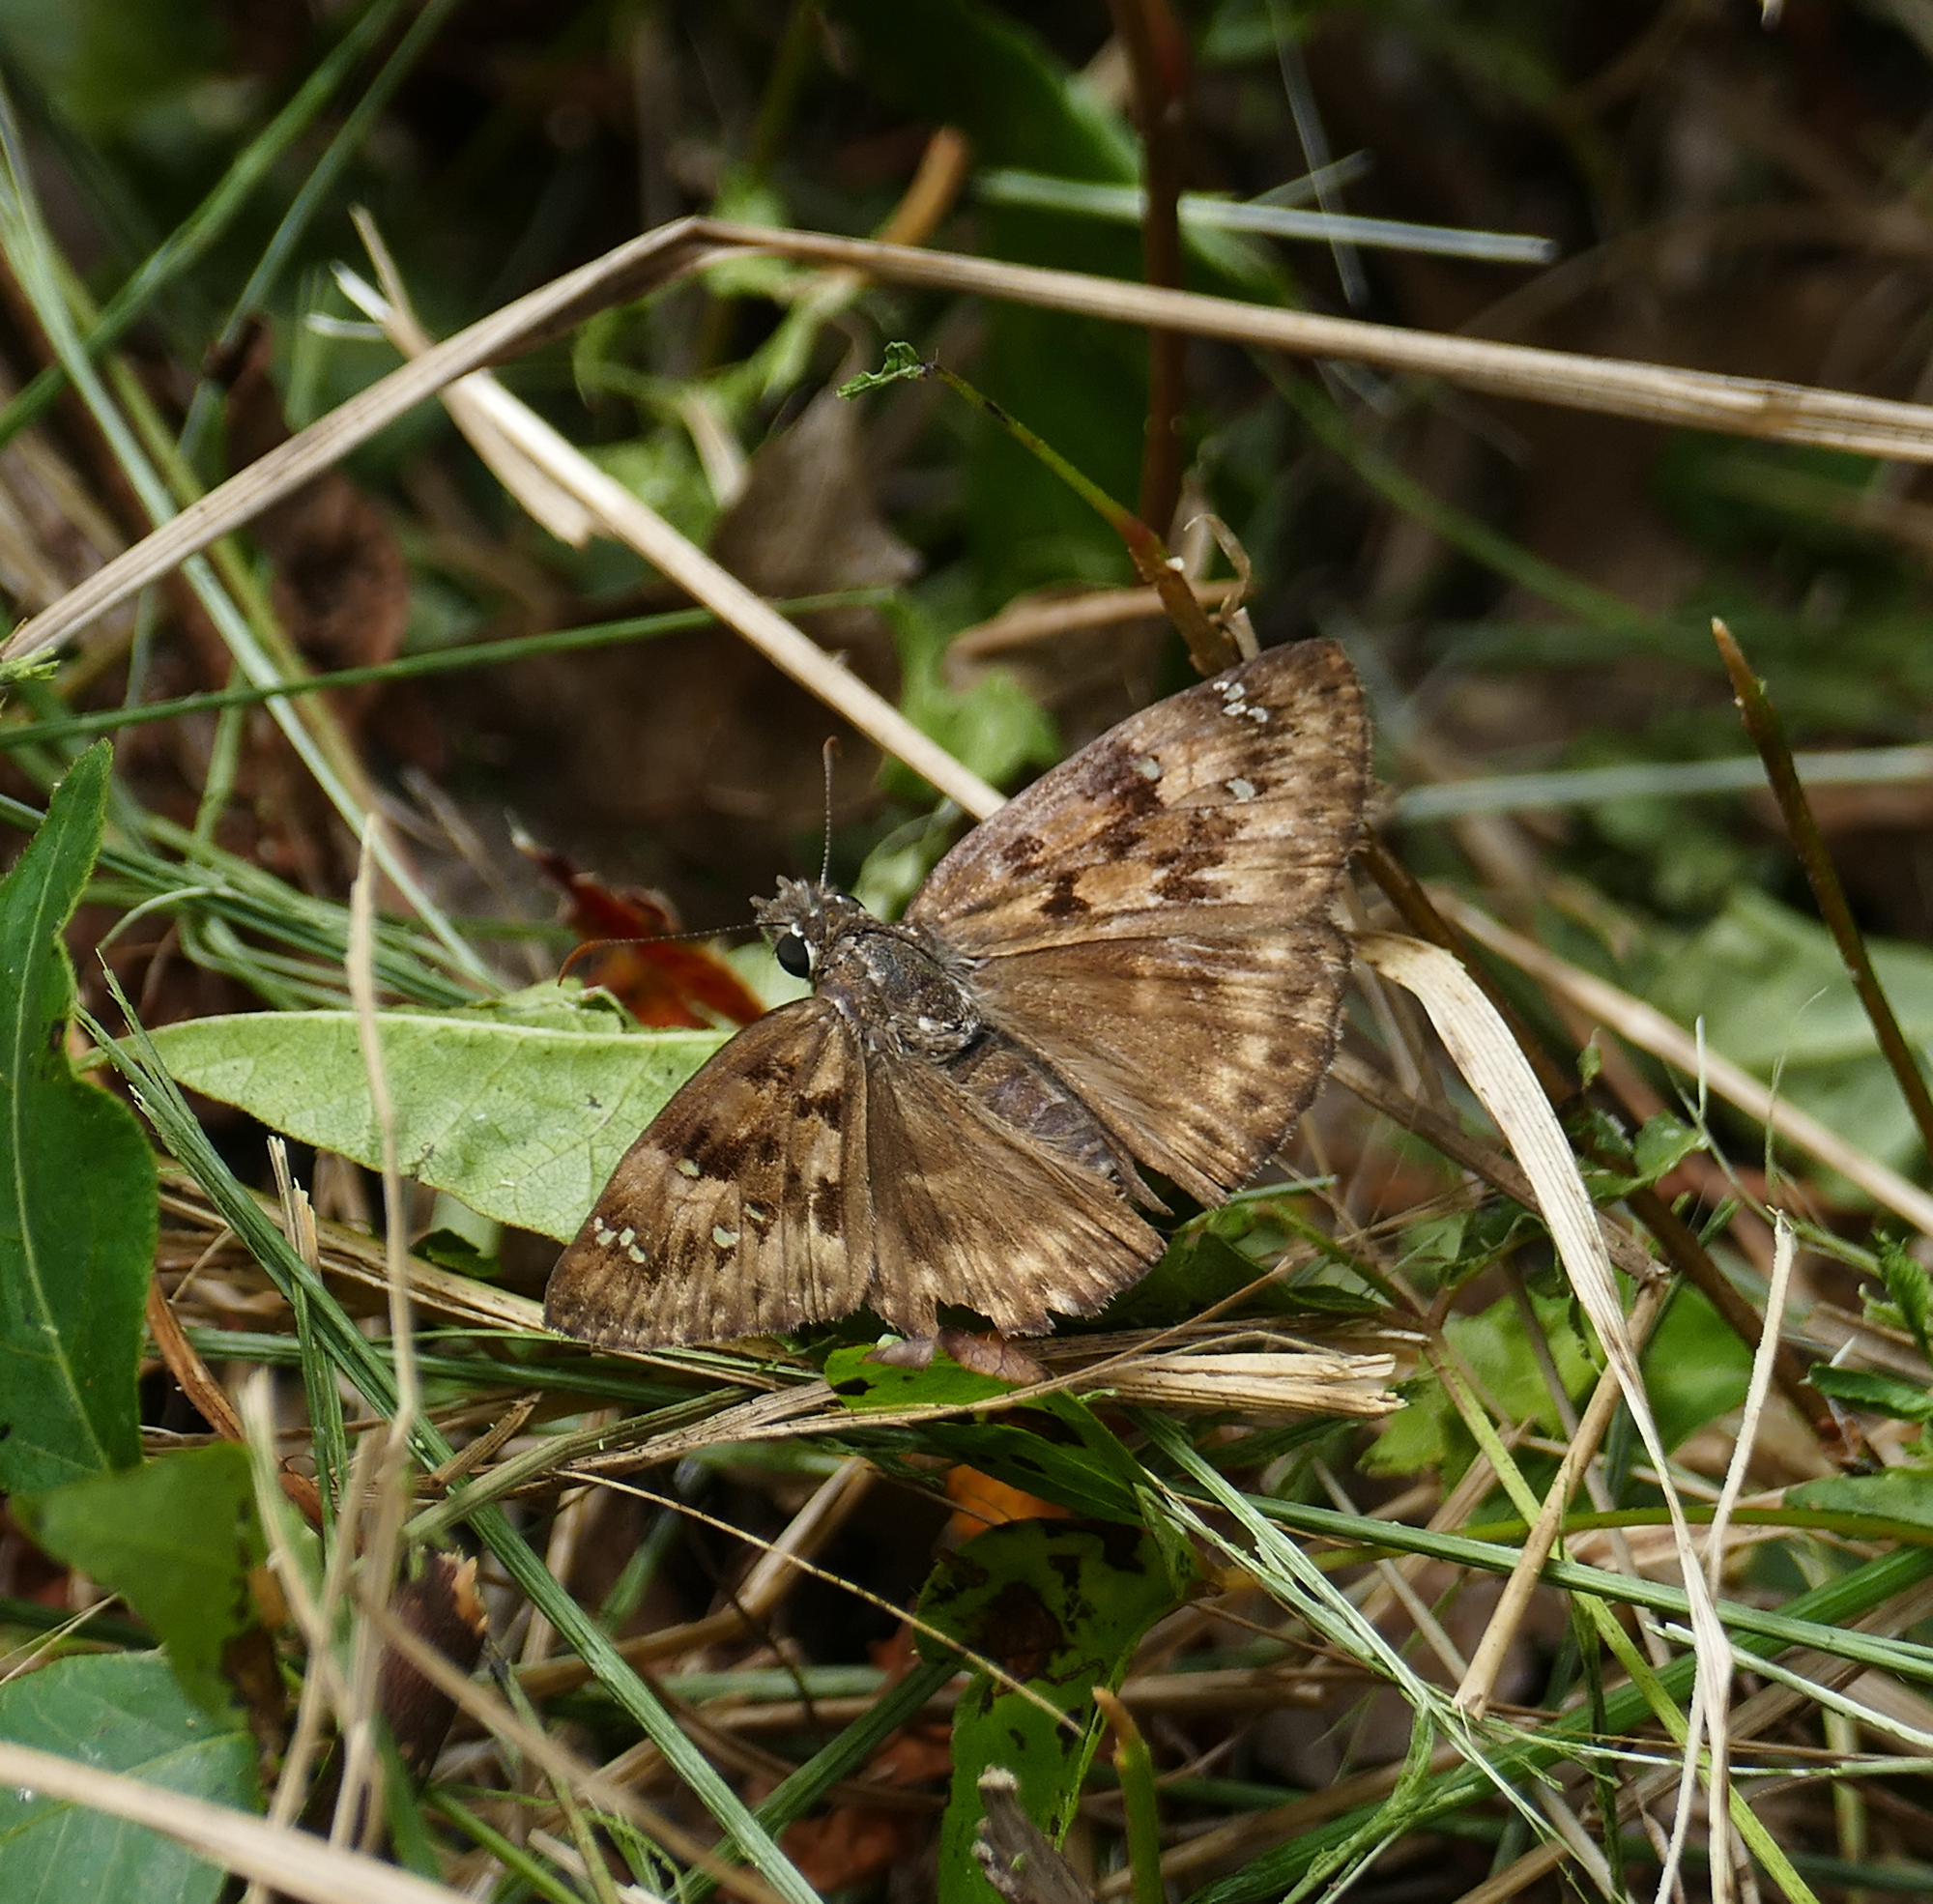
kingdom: Animalia
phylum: Arthropoda
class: Insecta
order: Lepidoptera
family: Hesperiidae
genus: Erynnis
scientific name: Erynnis horatius
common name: Horace's duskywing
